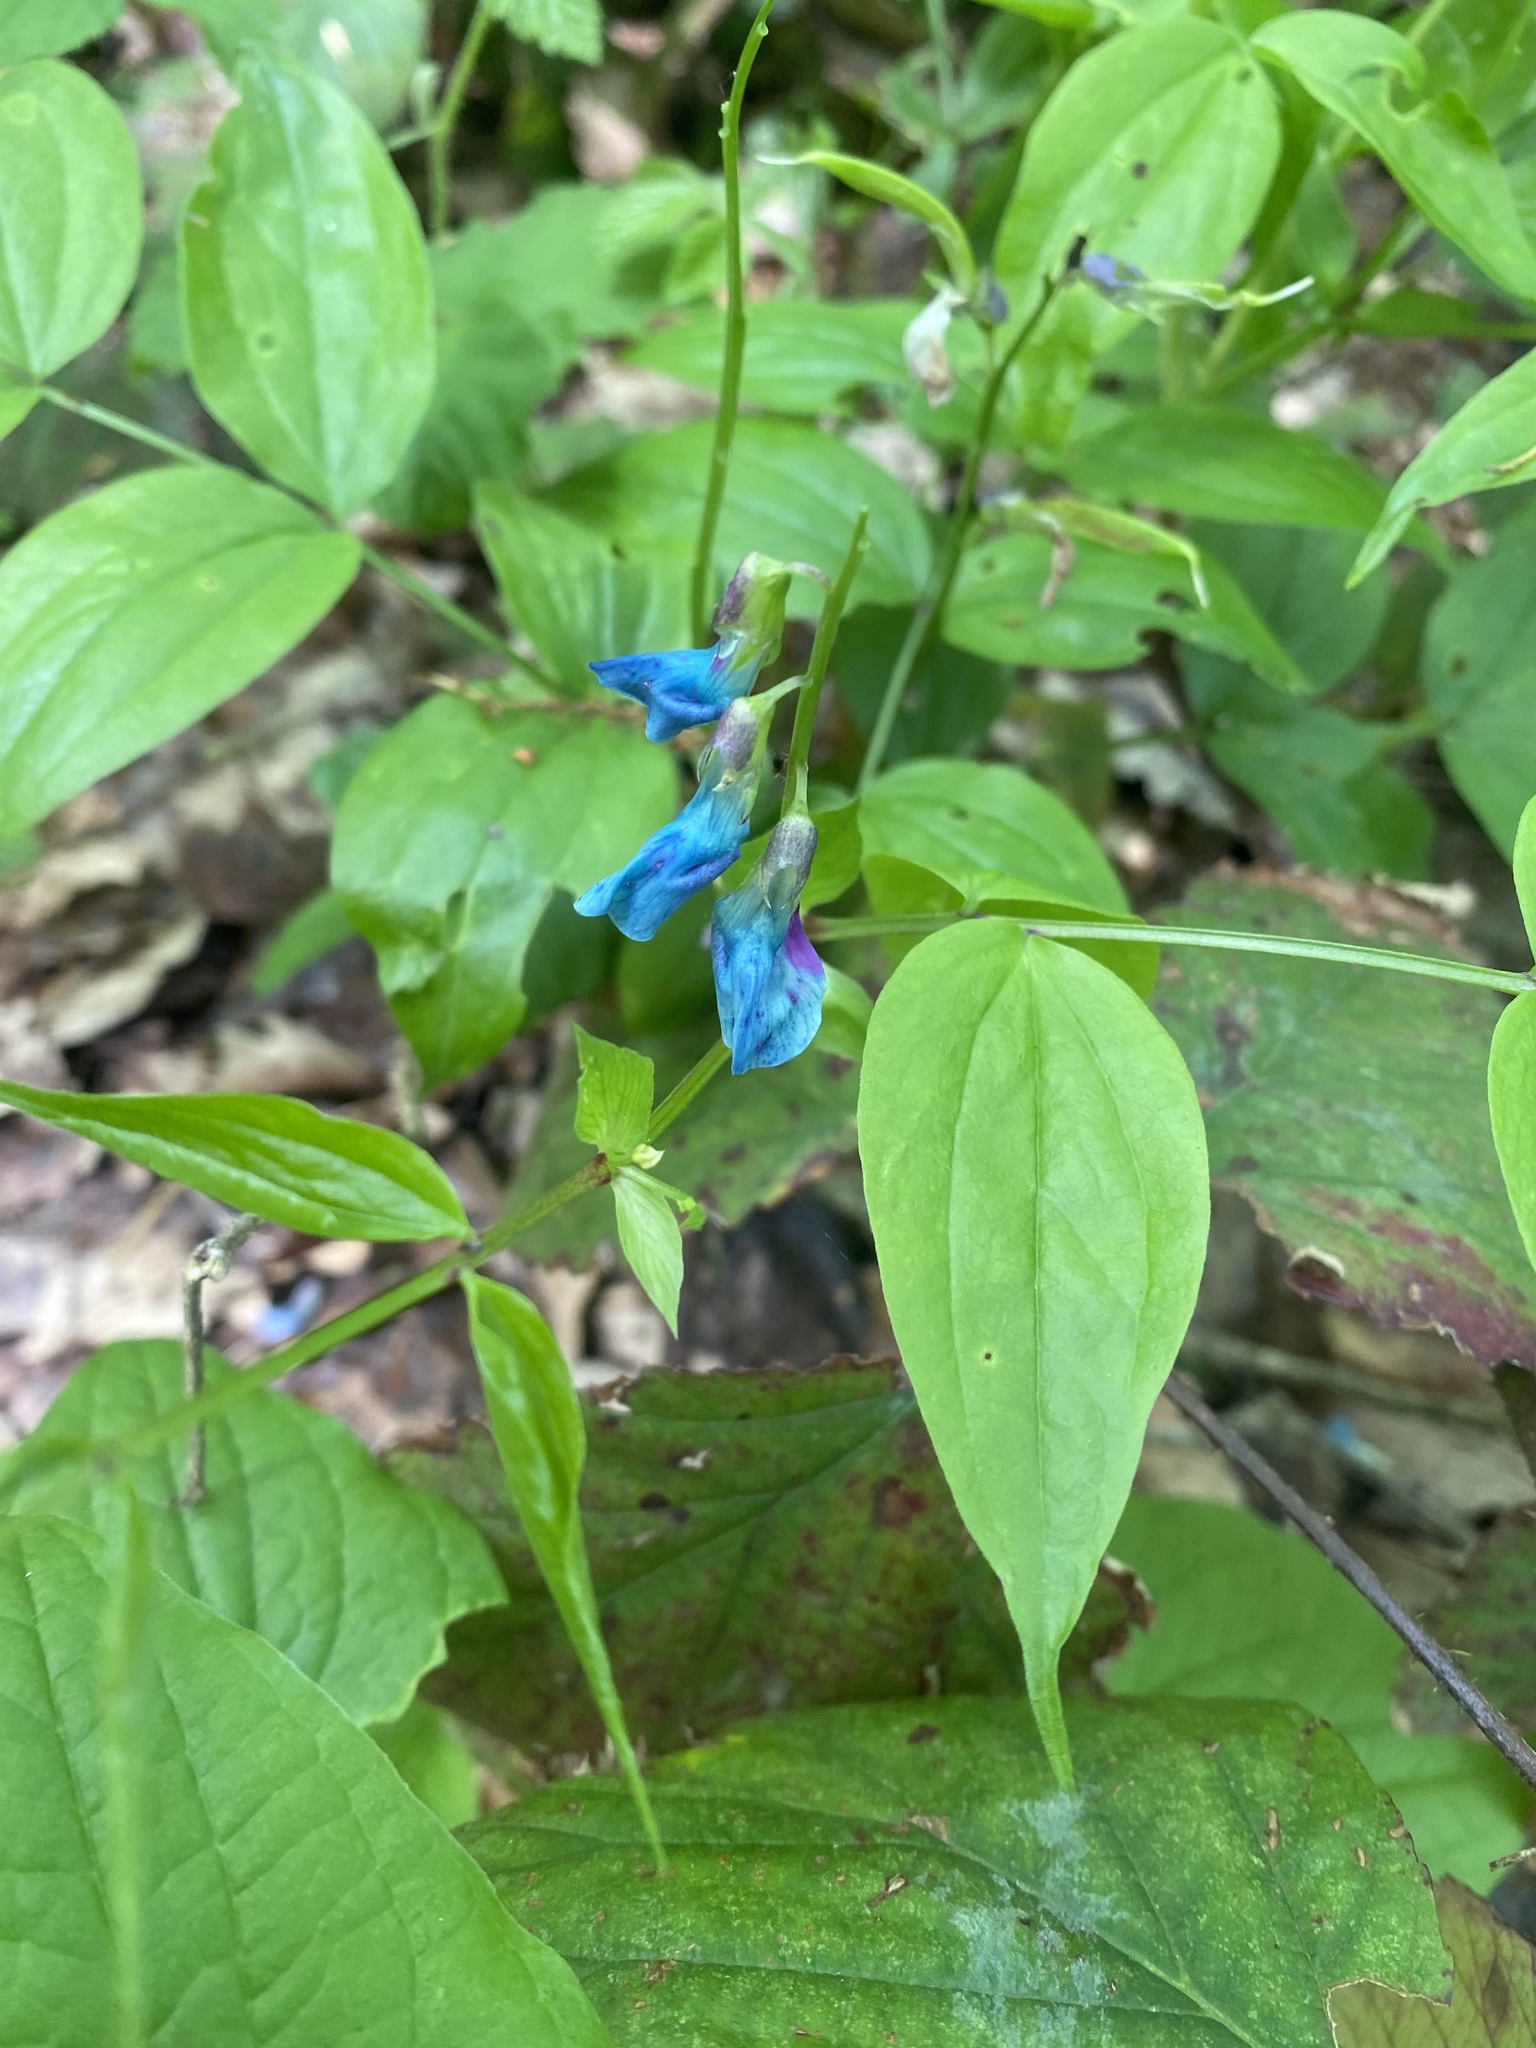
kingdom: Plantae
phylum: Tracheophyta
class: Magnoliopsida
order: Fabales
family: Fabaceae
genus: Lathyrus
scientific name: Lathyrus vernus
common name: Spring pea
